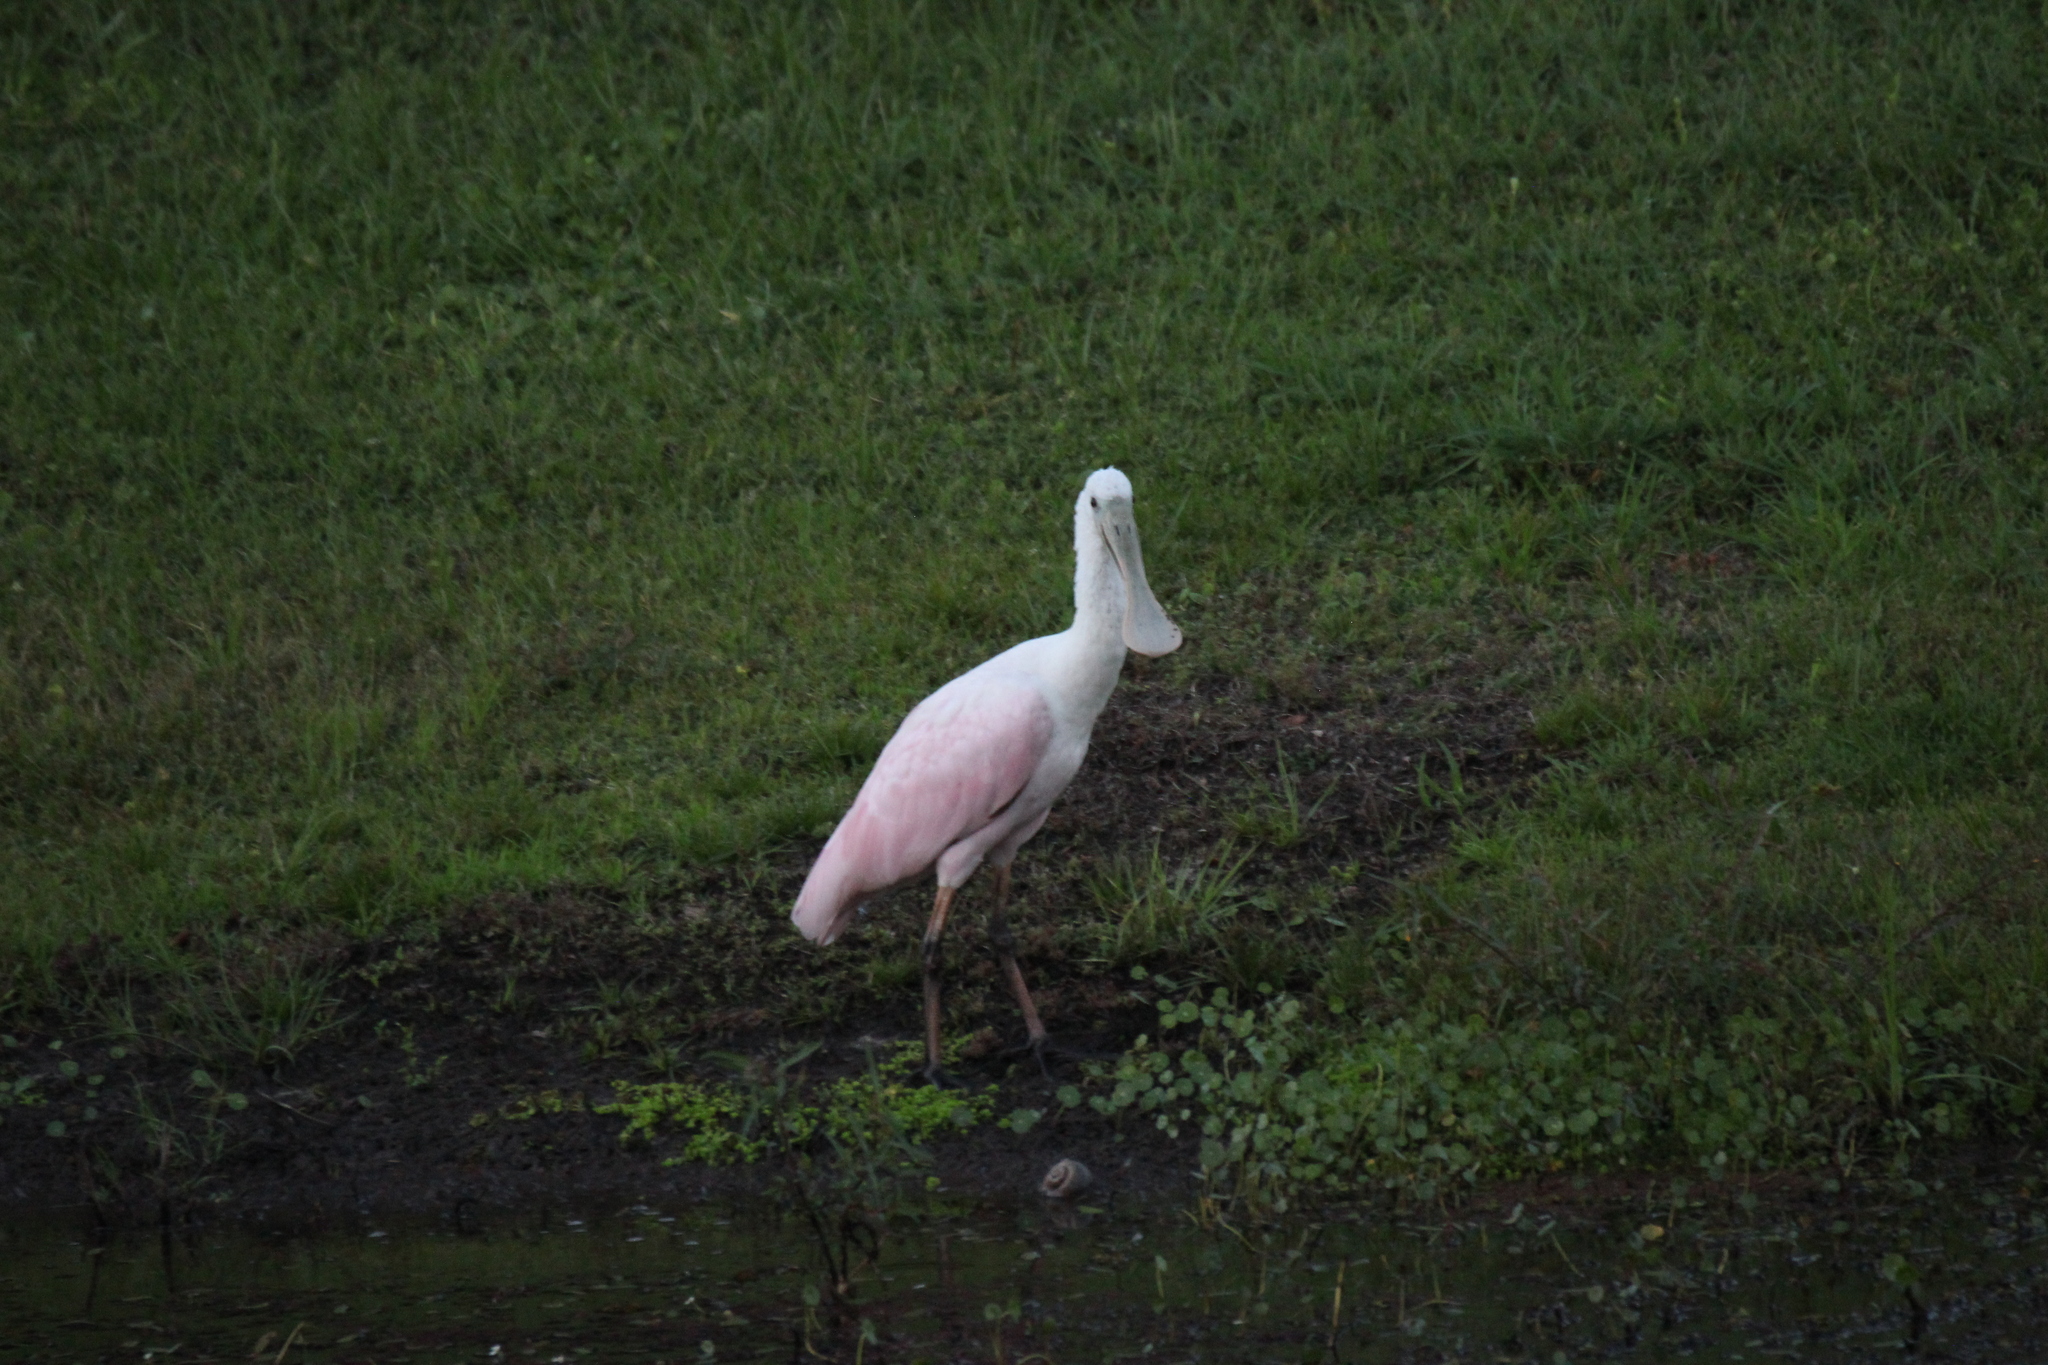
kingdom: Animalia
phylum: Chordata
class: Aves
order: Pelecaniformes
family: Threskiornithidae
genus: Platalea
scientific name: Platalea ajaja
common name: Roseate spoonbill
